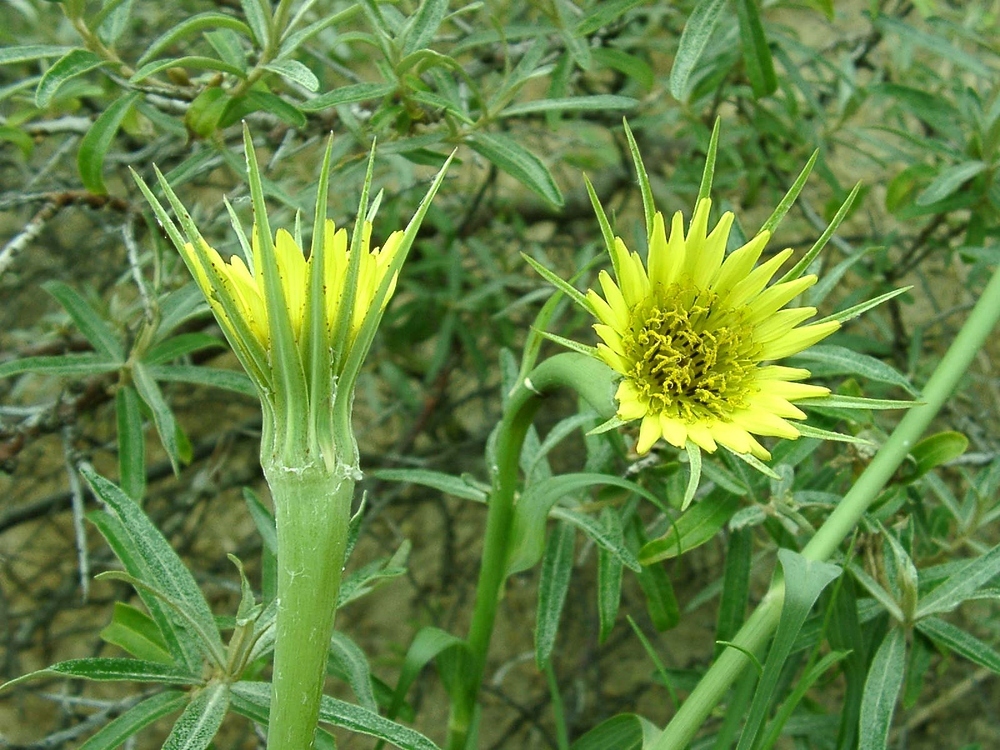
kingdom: Plantae
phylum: Tracheophyta
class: Magnoliopsida
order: Asterales
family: Asteraceae
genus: Tragopogon
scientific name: Tragopogon dubius
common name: Yellow salsify
